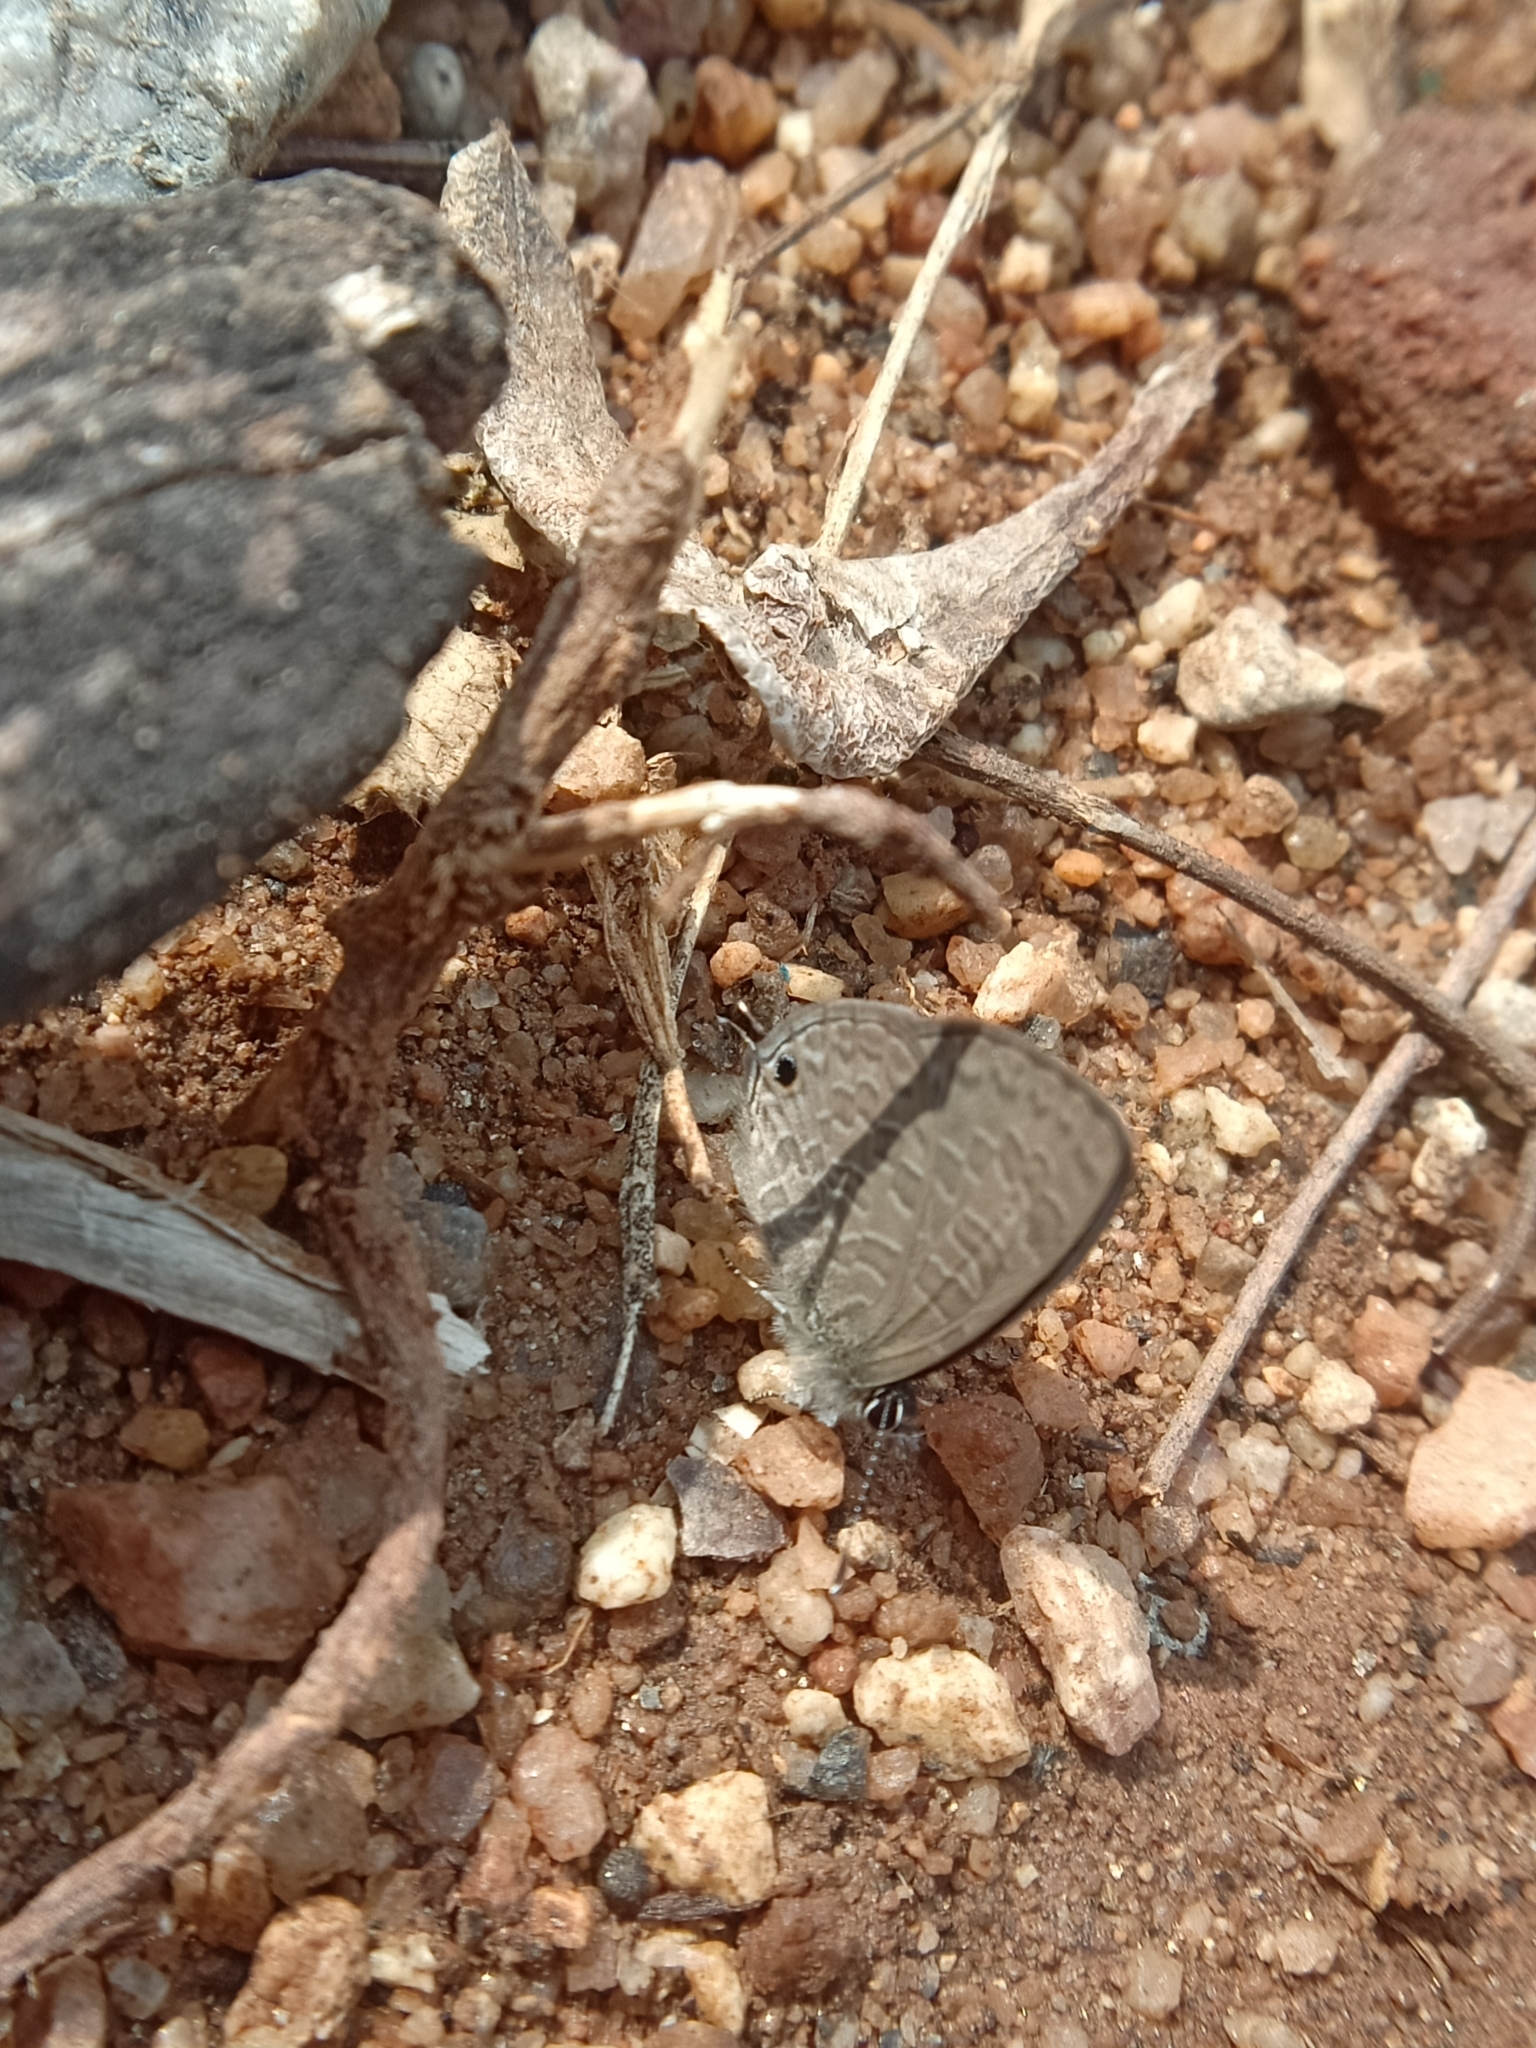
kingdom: Animalia
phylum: Arthropoda
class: Insecta
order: Lepidoptera
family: Lycaenidae
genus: Prosotas
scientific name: Prosotas nora
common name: Common line blue
